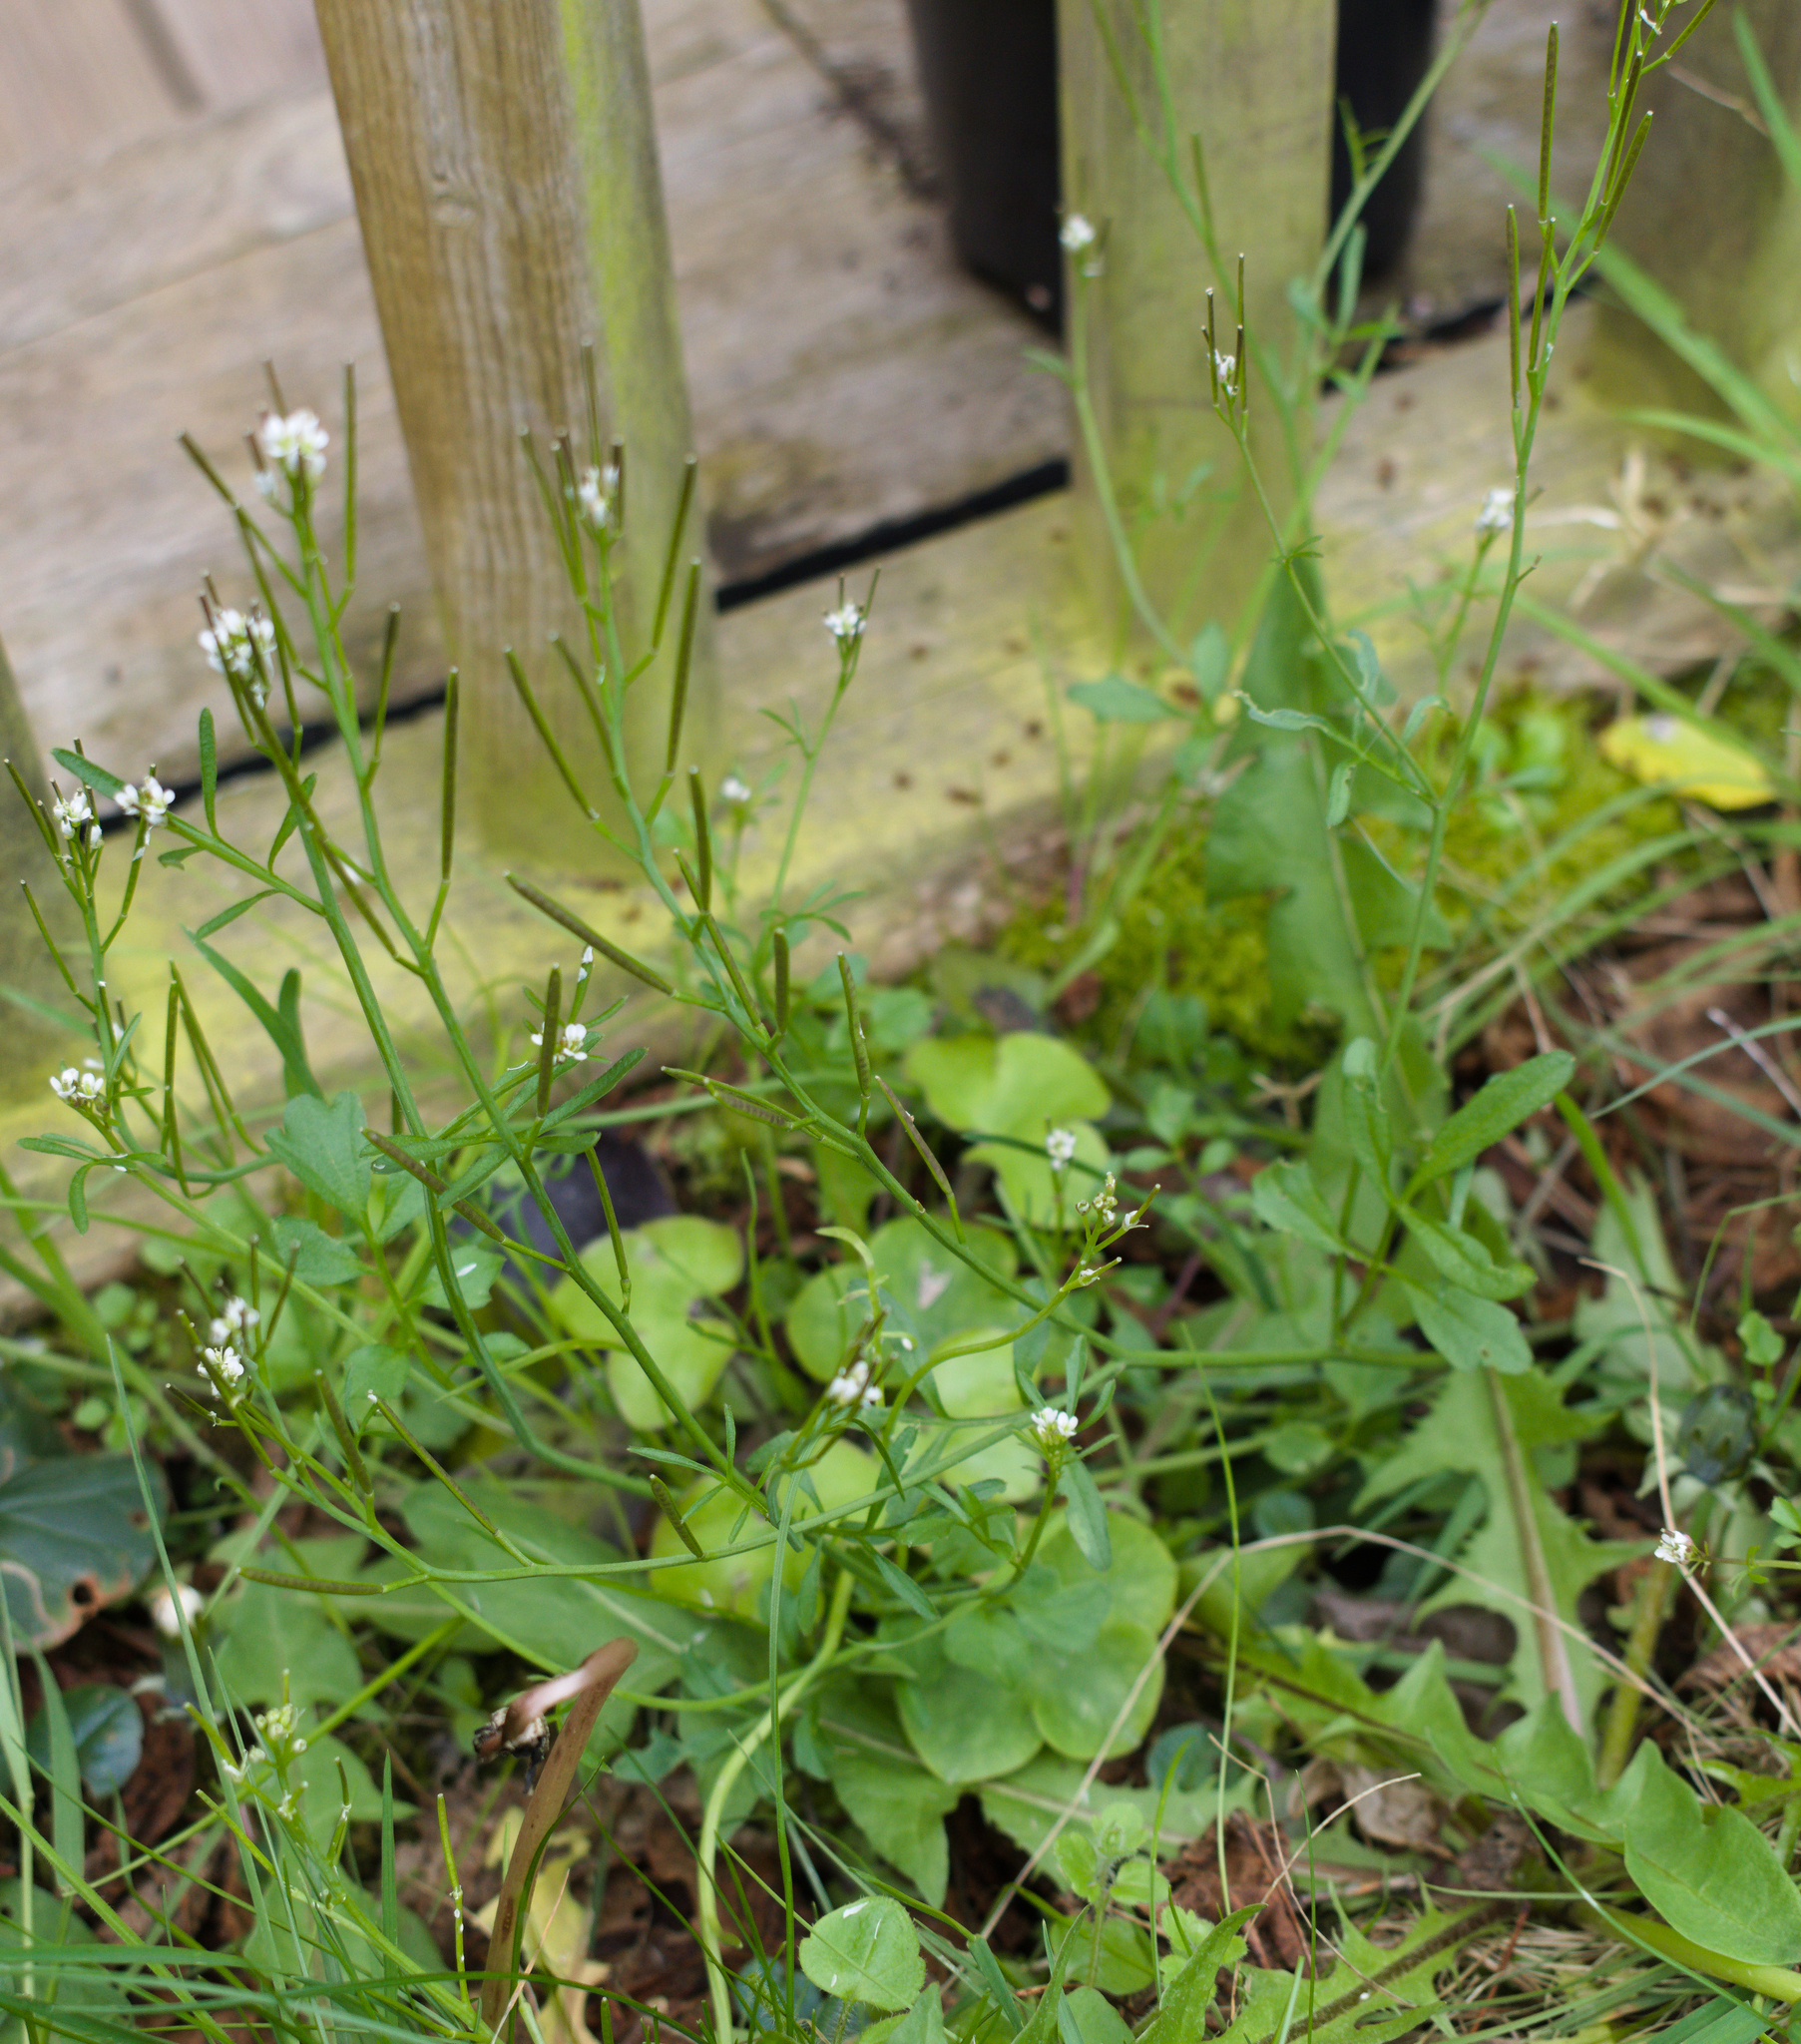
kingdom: Plantae
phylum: Tracheophyta
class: Magnoliopsida
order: Brassicales
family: Brassicaceae
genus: Cardamine
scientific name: Cardamine hirsuta
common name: Hairy bittercress
